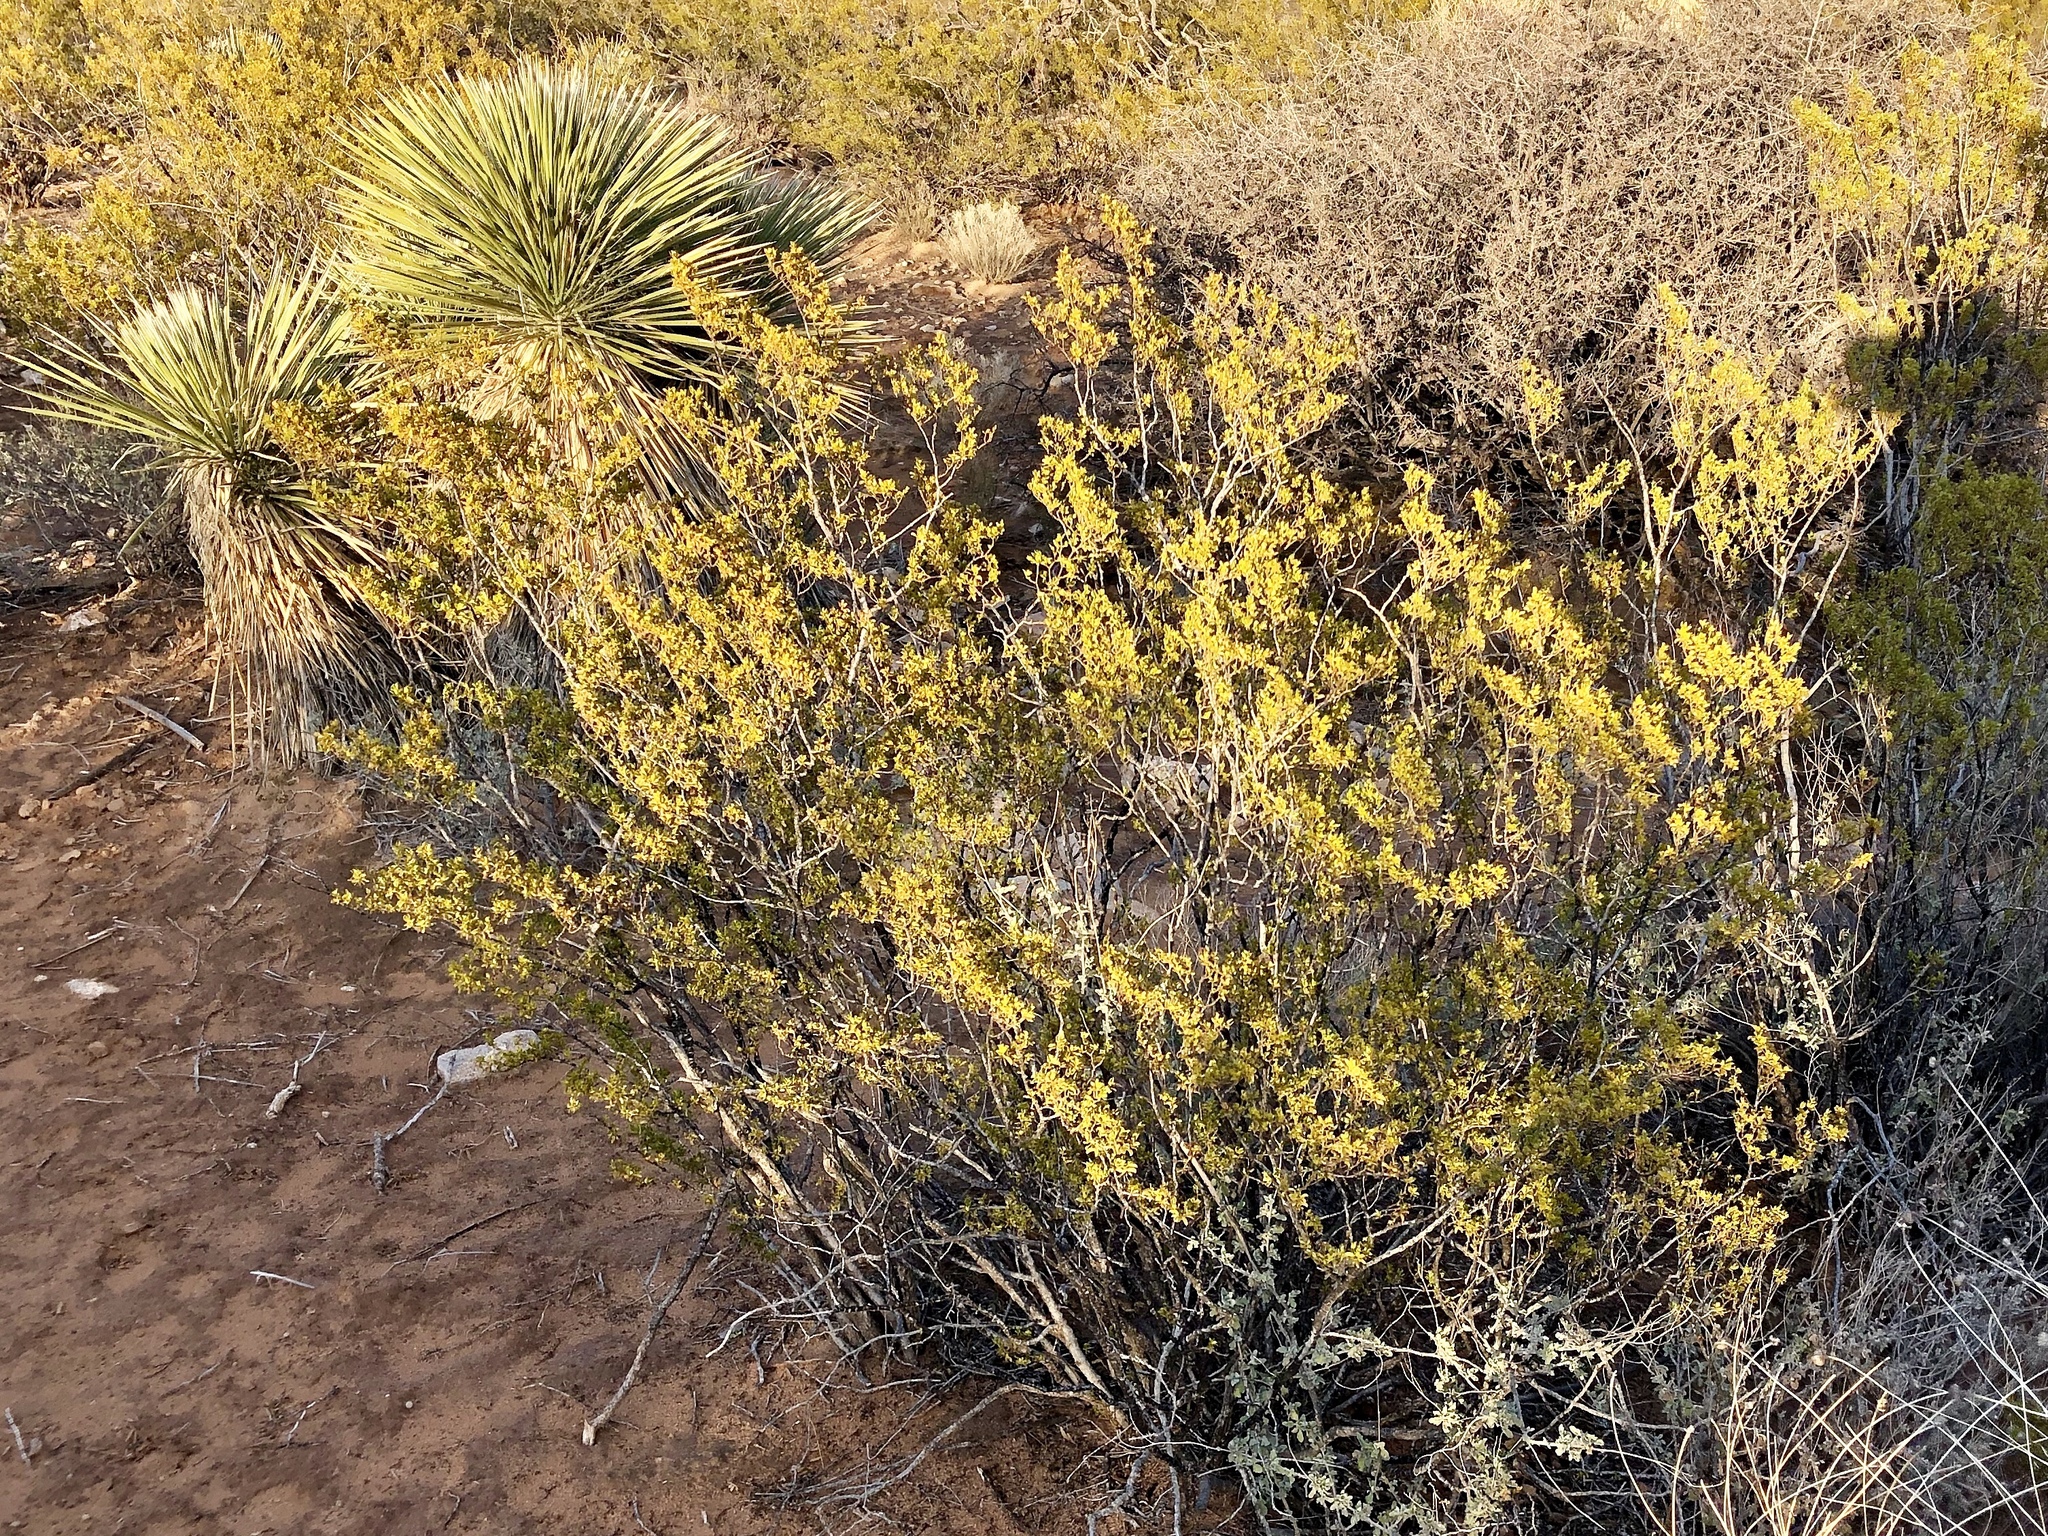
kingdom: Plantae
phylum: Tracheophyta
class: Magnoliopsida
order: Zygophyllales
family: Zygophyllaceae
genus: Larrea
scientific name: Larrea tridentata
